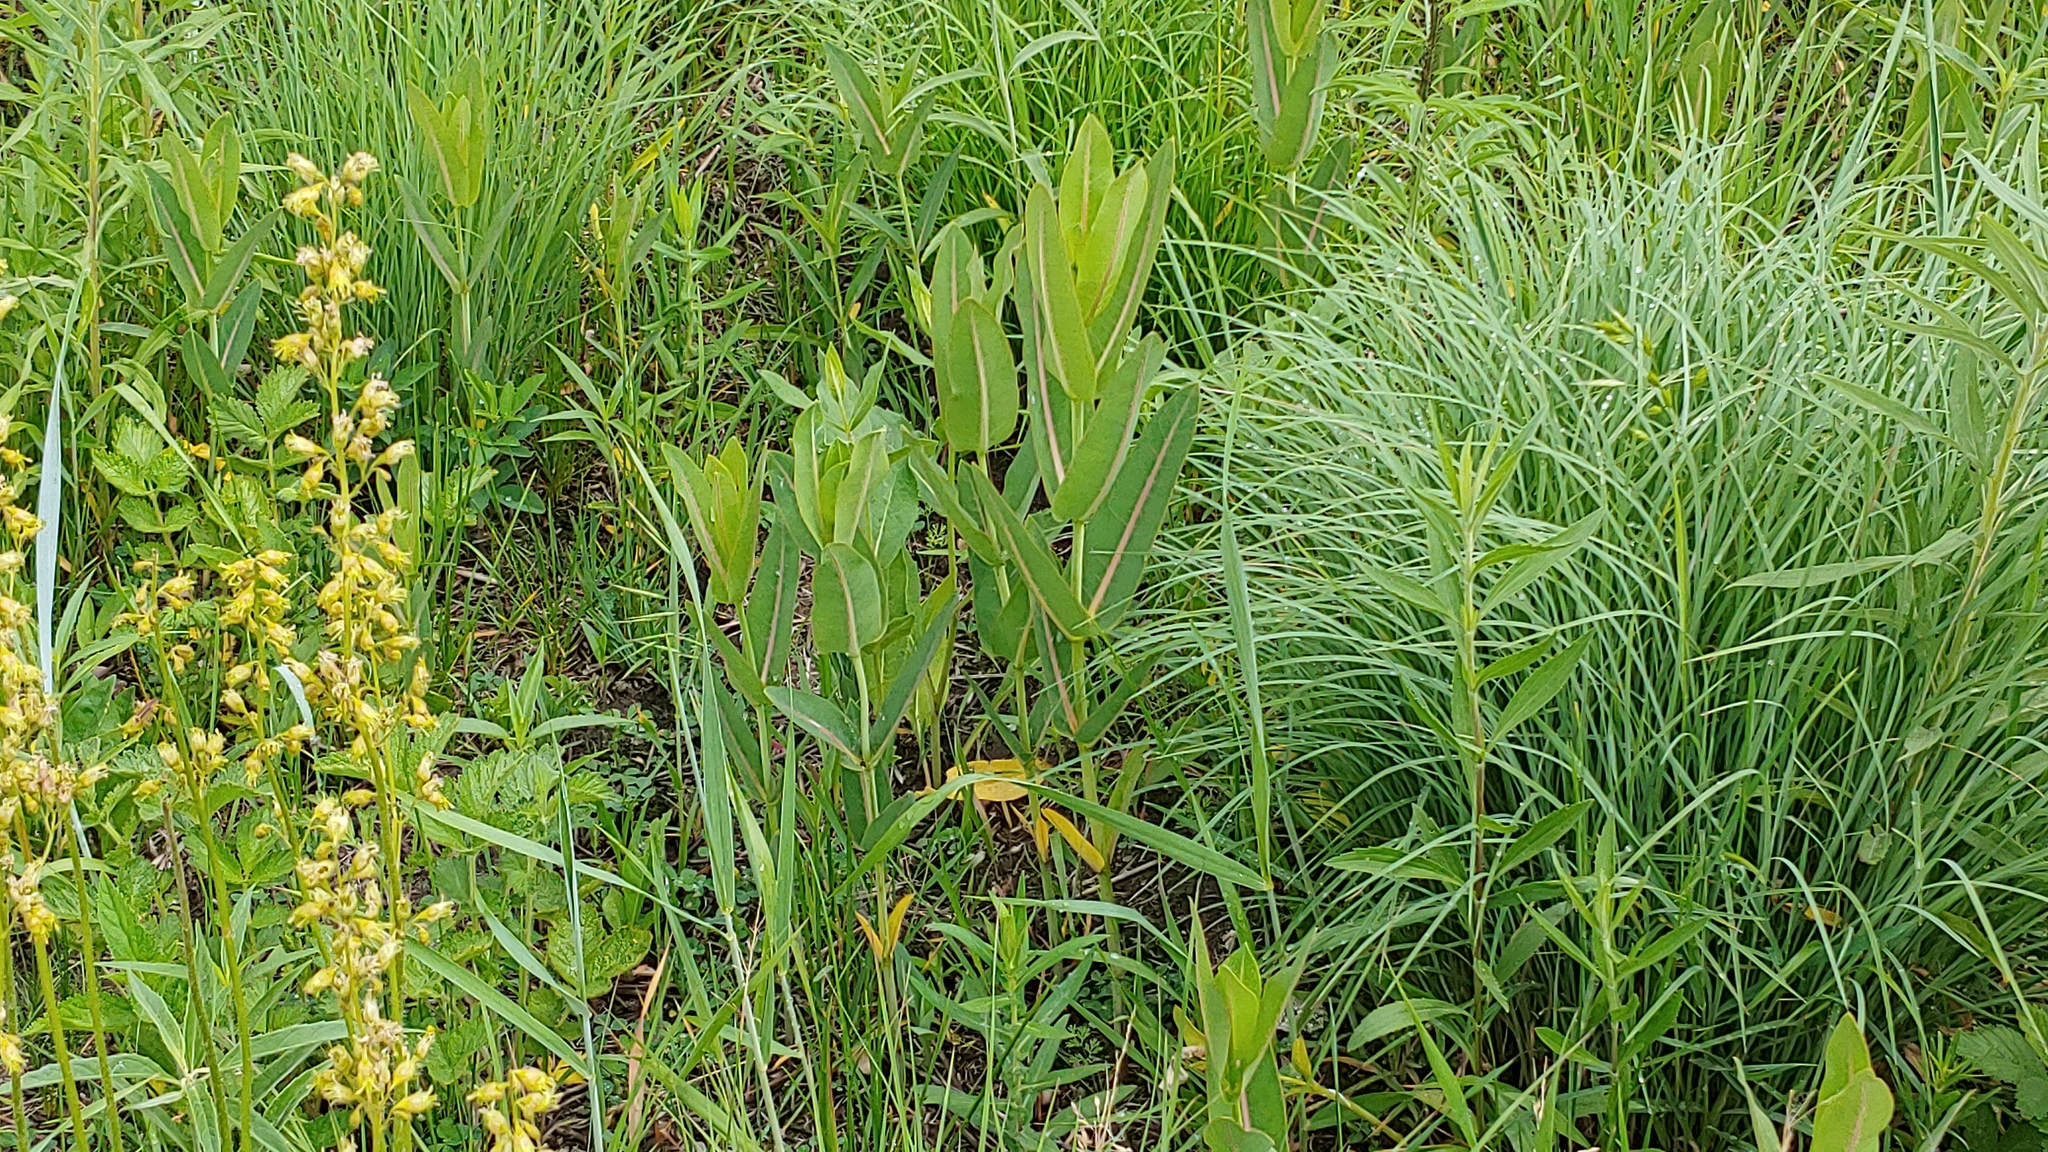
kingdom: Plantae
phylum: Tracheophyta
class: Magnoliopsida
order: Gentianales
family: Apocynaceae
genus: Asclepias
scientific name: Asclepias sullivantii
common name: Prairie milkweed
